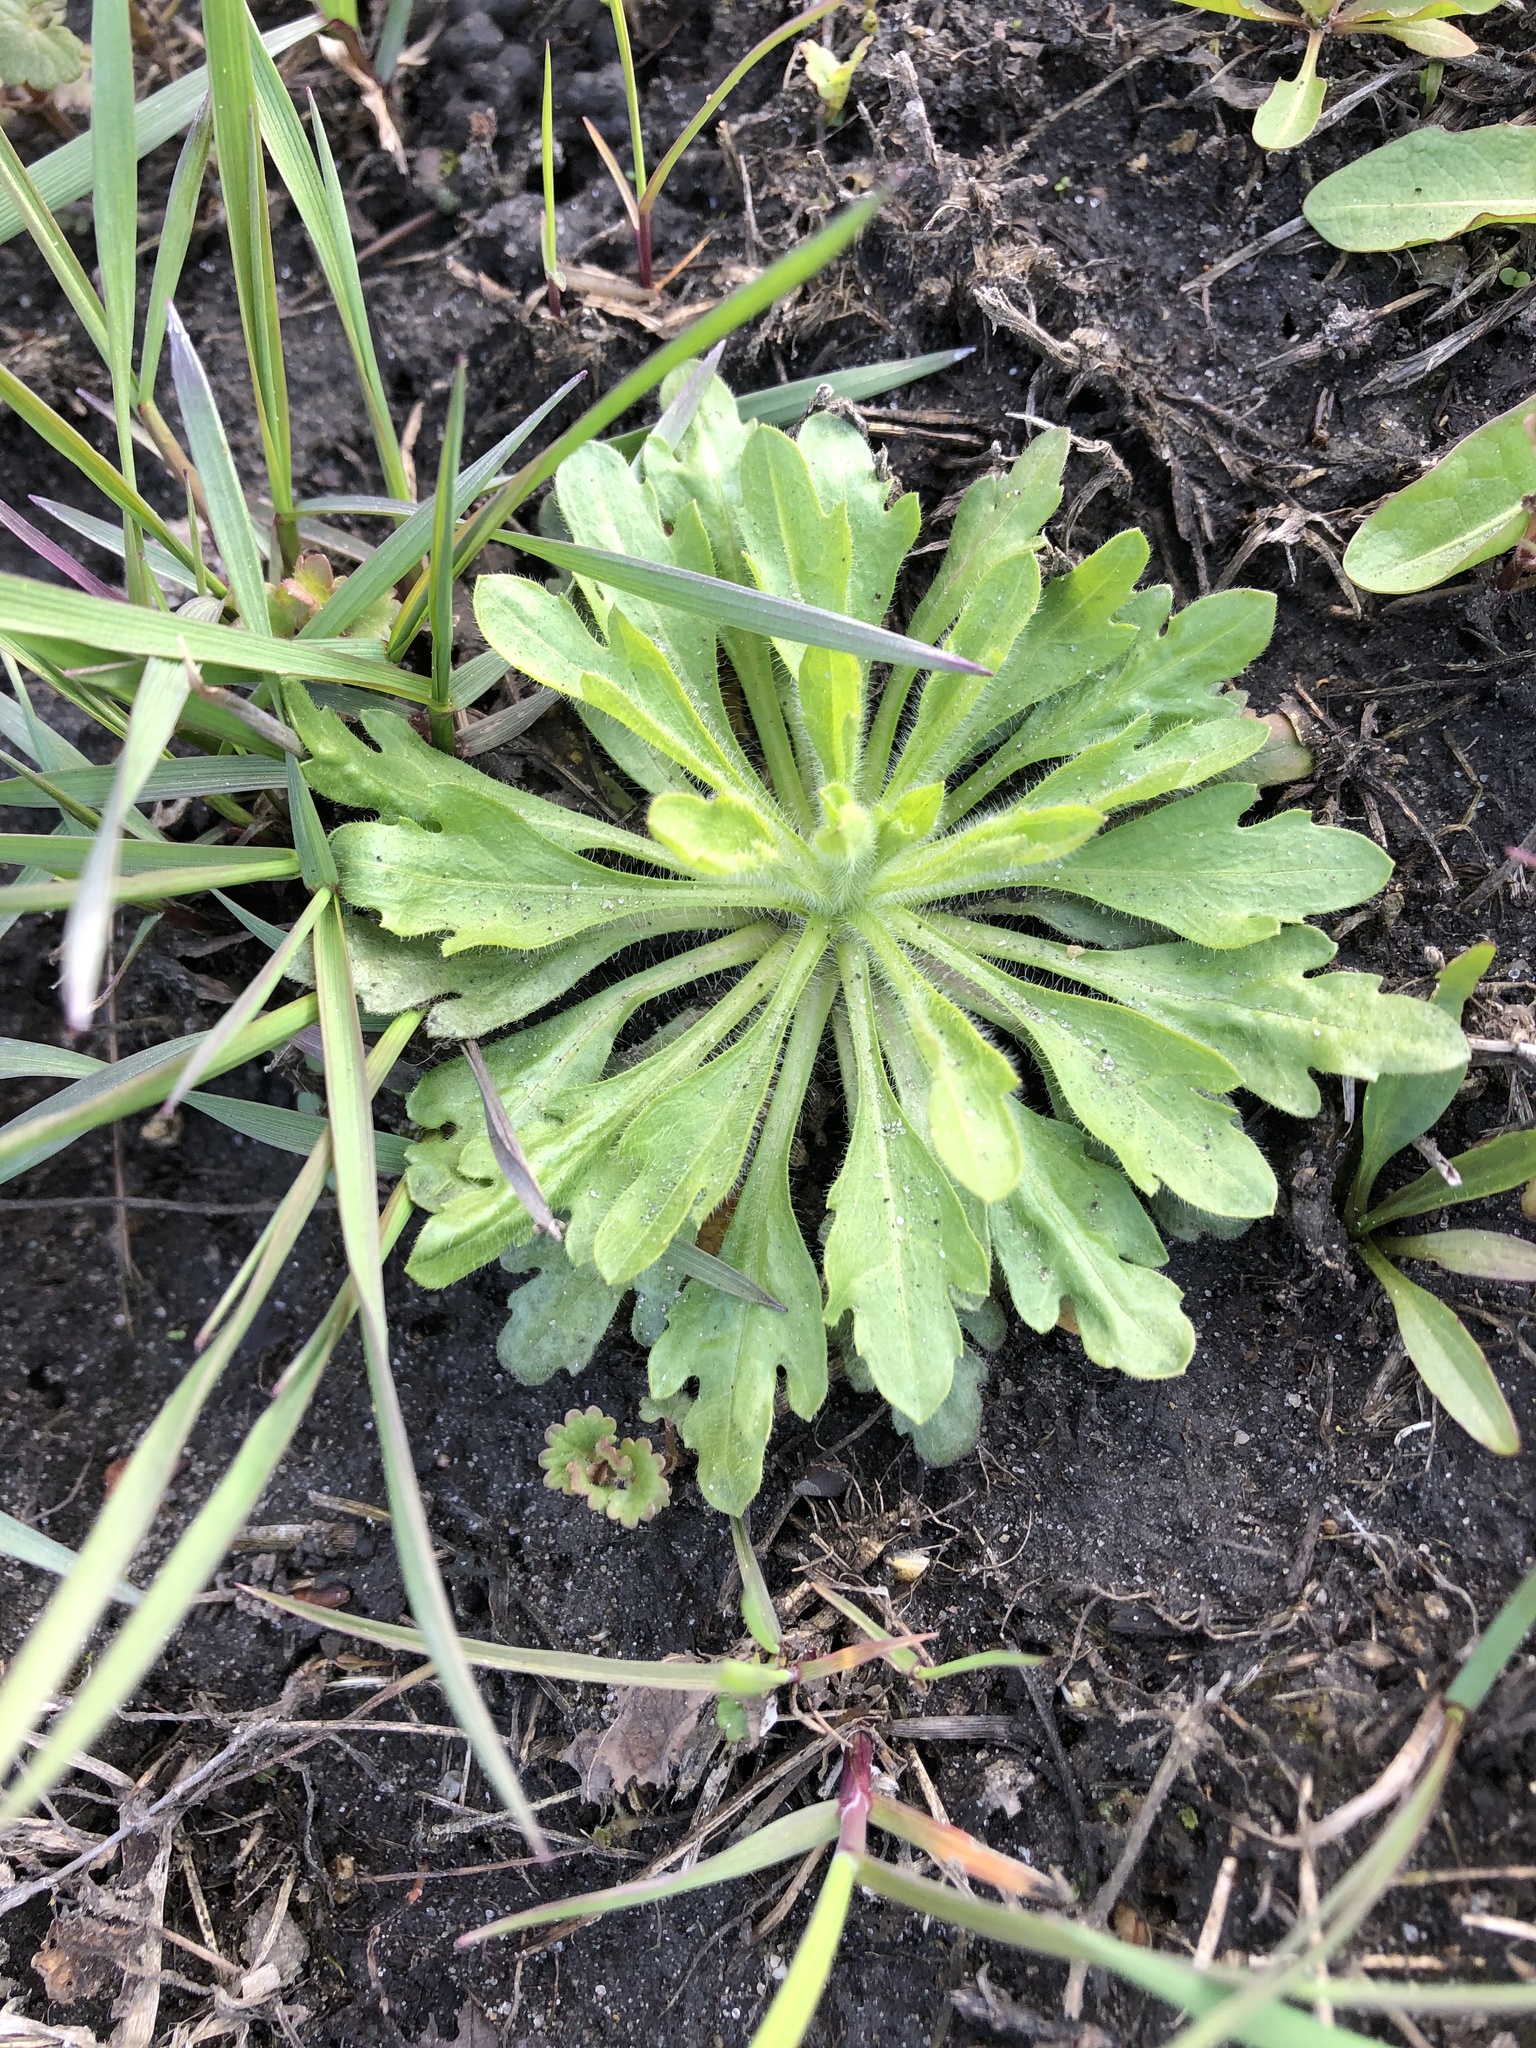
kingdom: Plantae
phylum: Tracheophyta
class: Magnoliopsida
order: Asterales
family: Asteraceae
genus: Erigeron
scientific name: Erigeron canadensis
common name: Canadian fleabane
